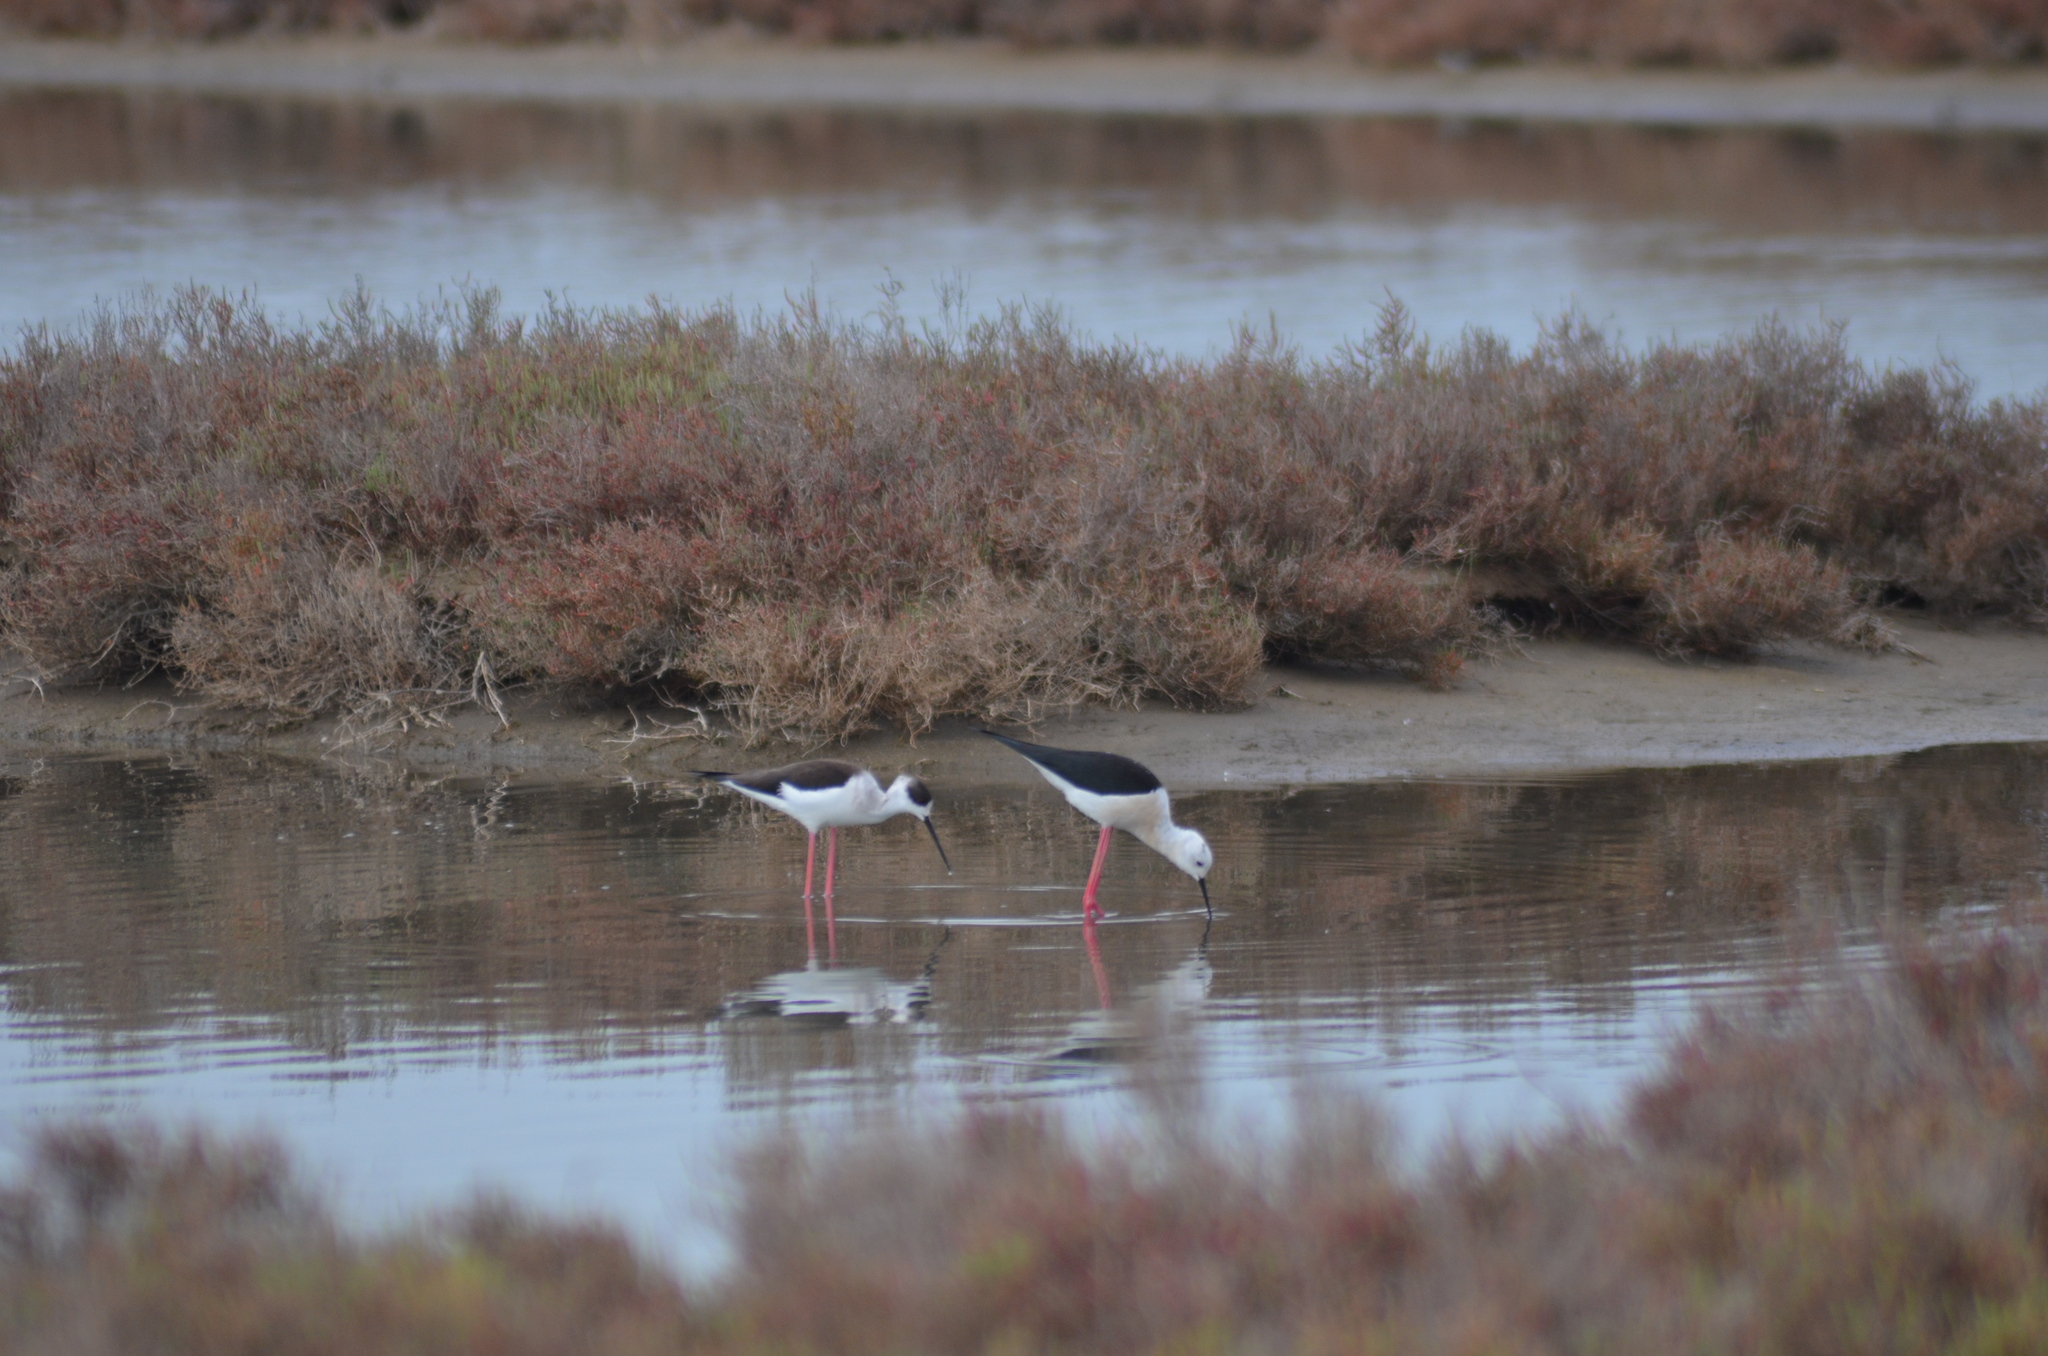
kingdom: Animalia
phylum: Chordata
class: Aves
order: Charadriiformes
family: Recurvirostridae
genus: Himantopus
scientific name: Himantopus himantopus
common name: Black-winged stilt
